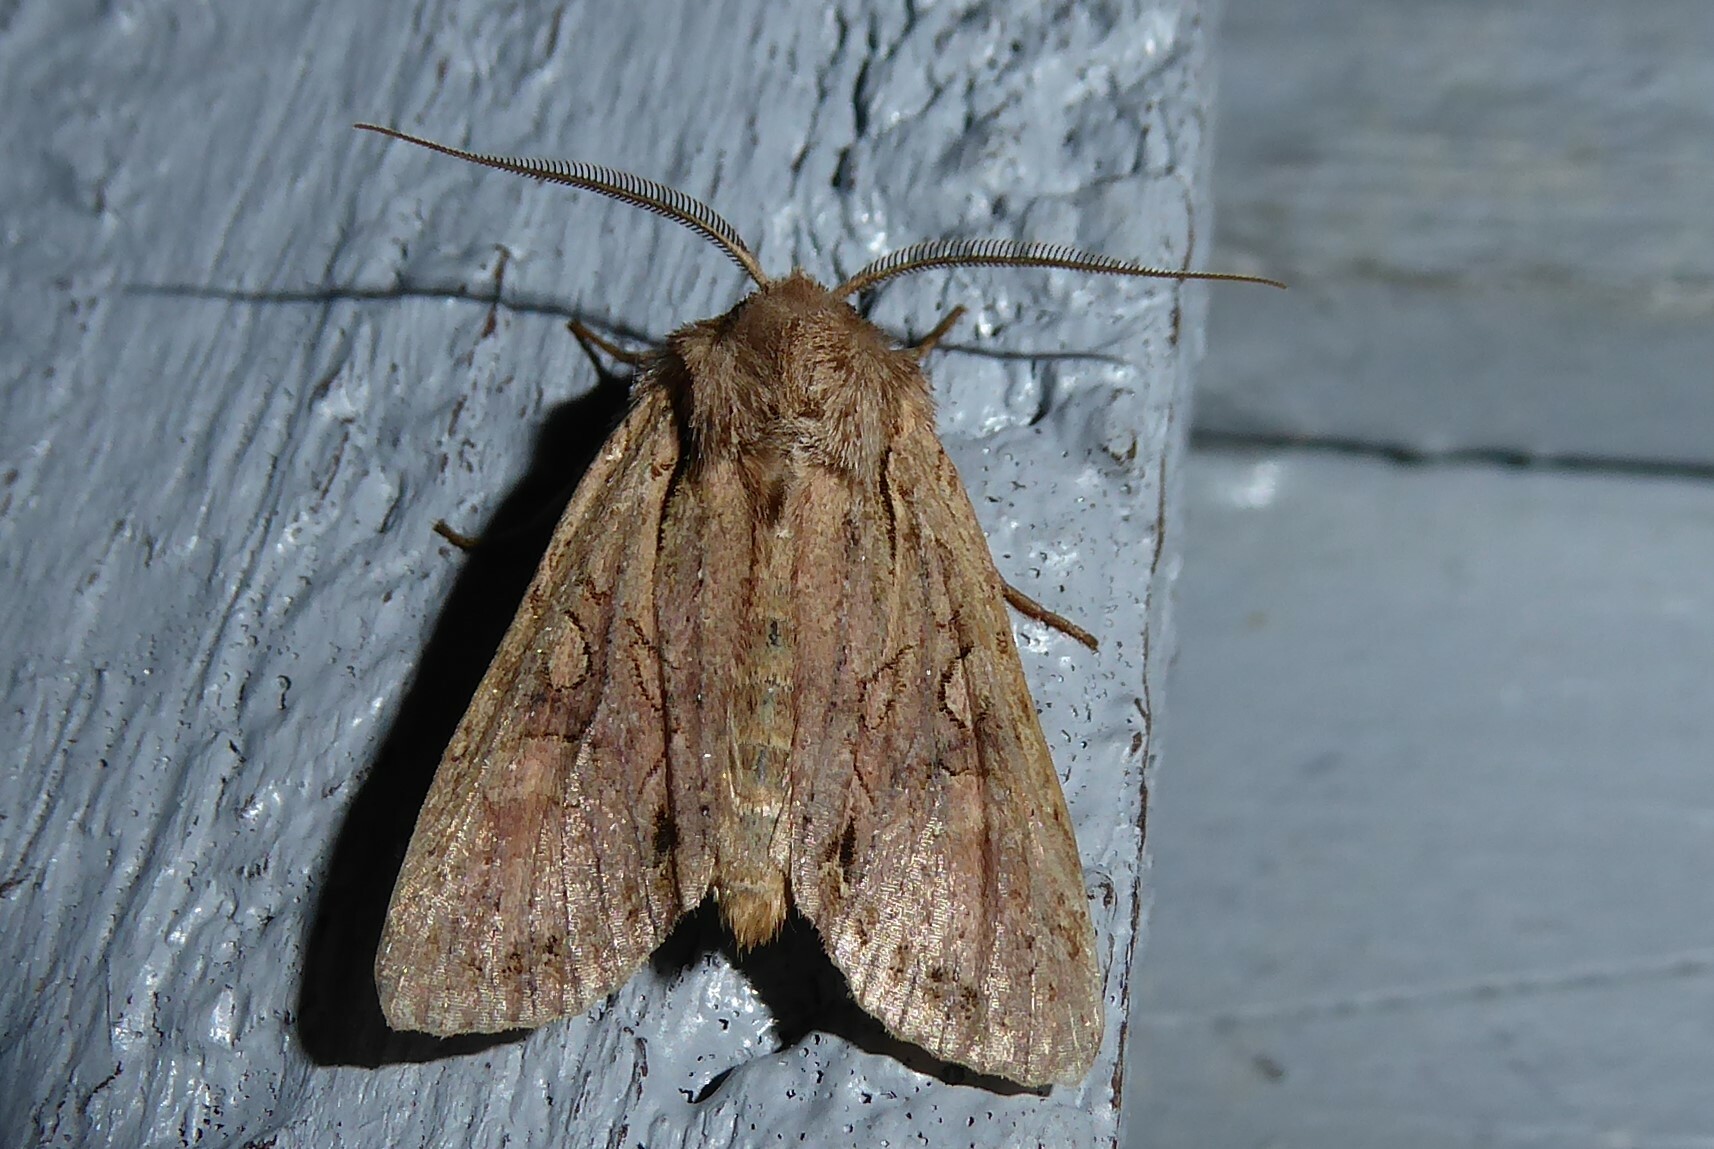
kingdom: Animalia
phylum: Arthropoda
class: Insecta
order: Lepidoptera
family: Noctuidae
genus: Ichneutica
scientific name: Ichneutica
